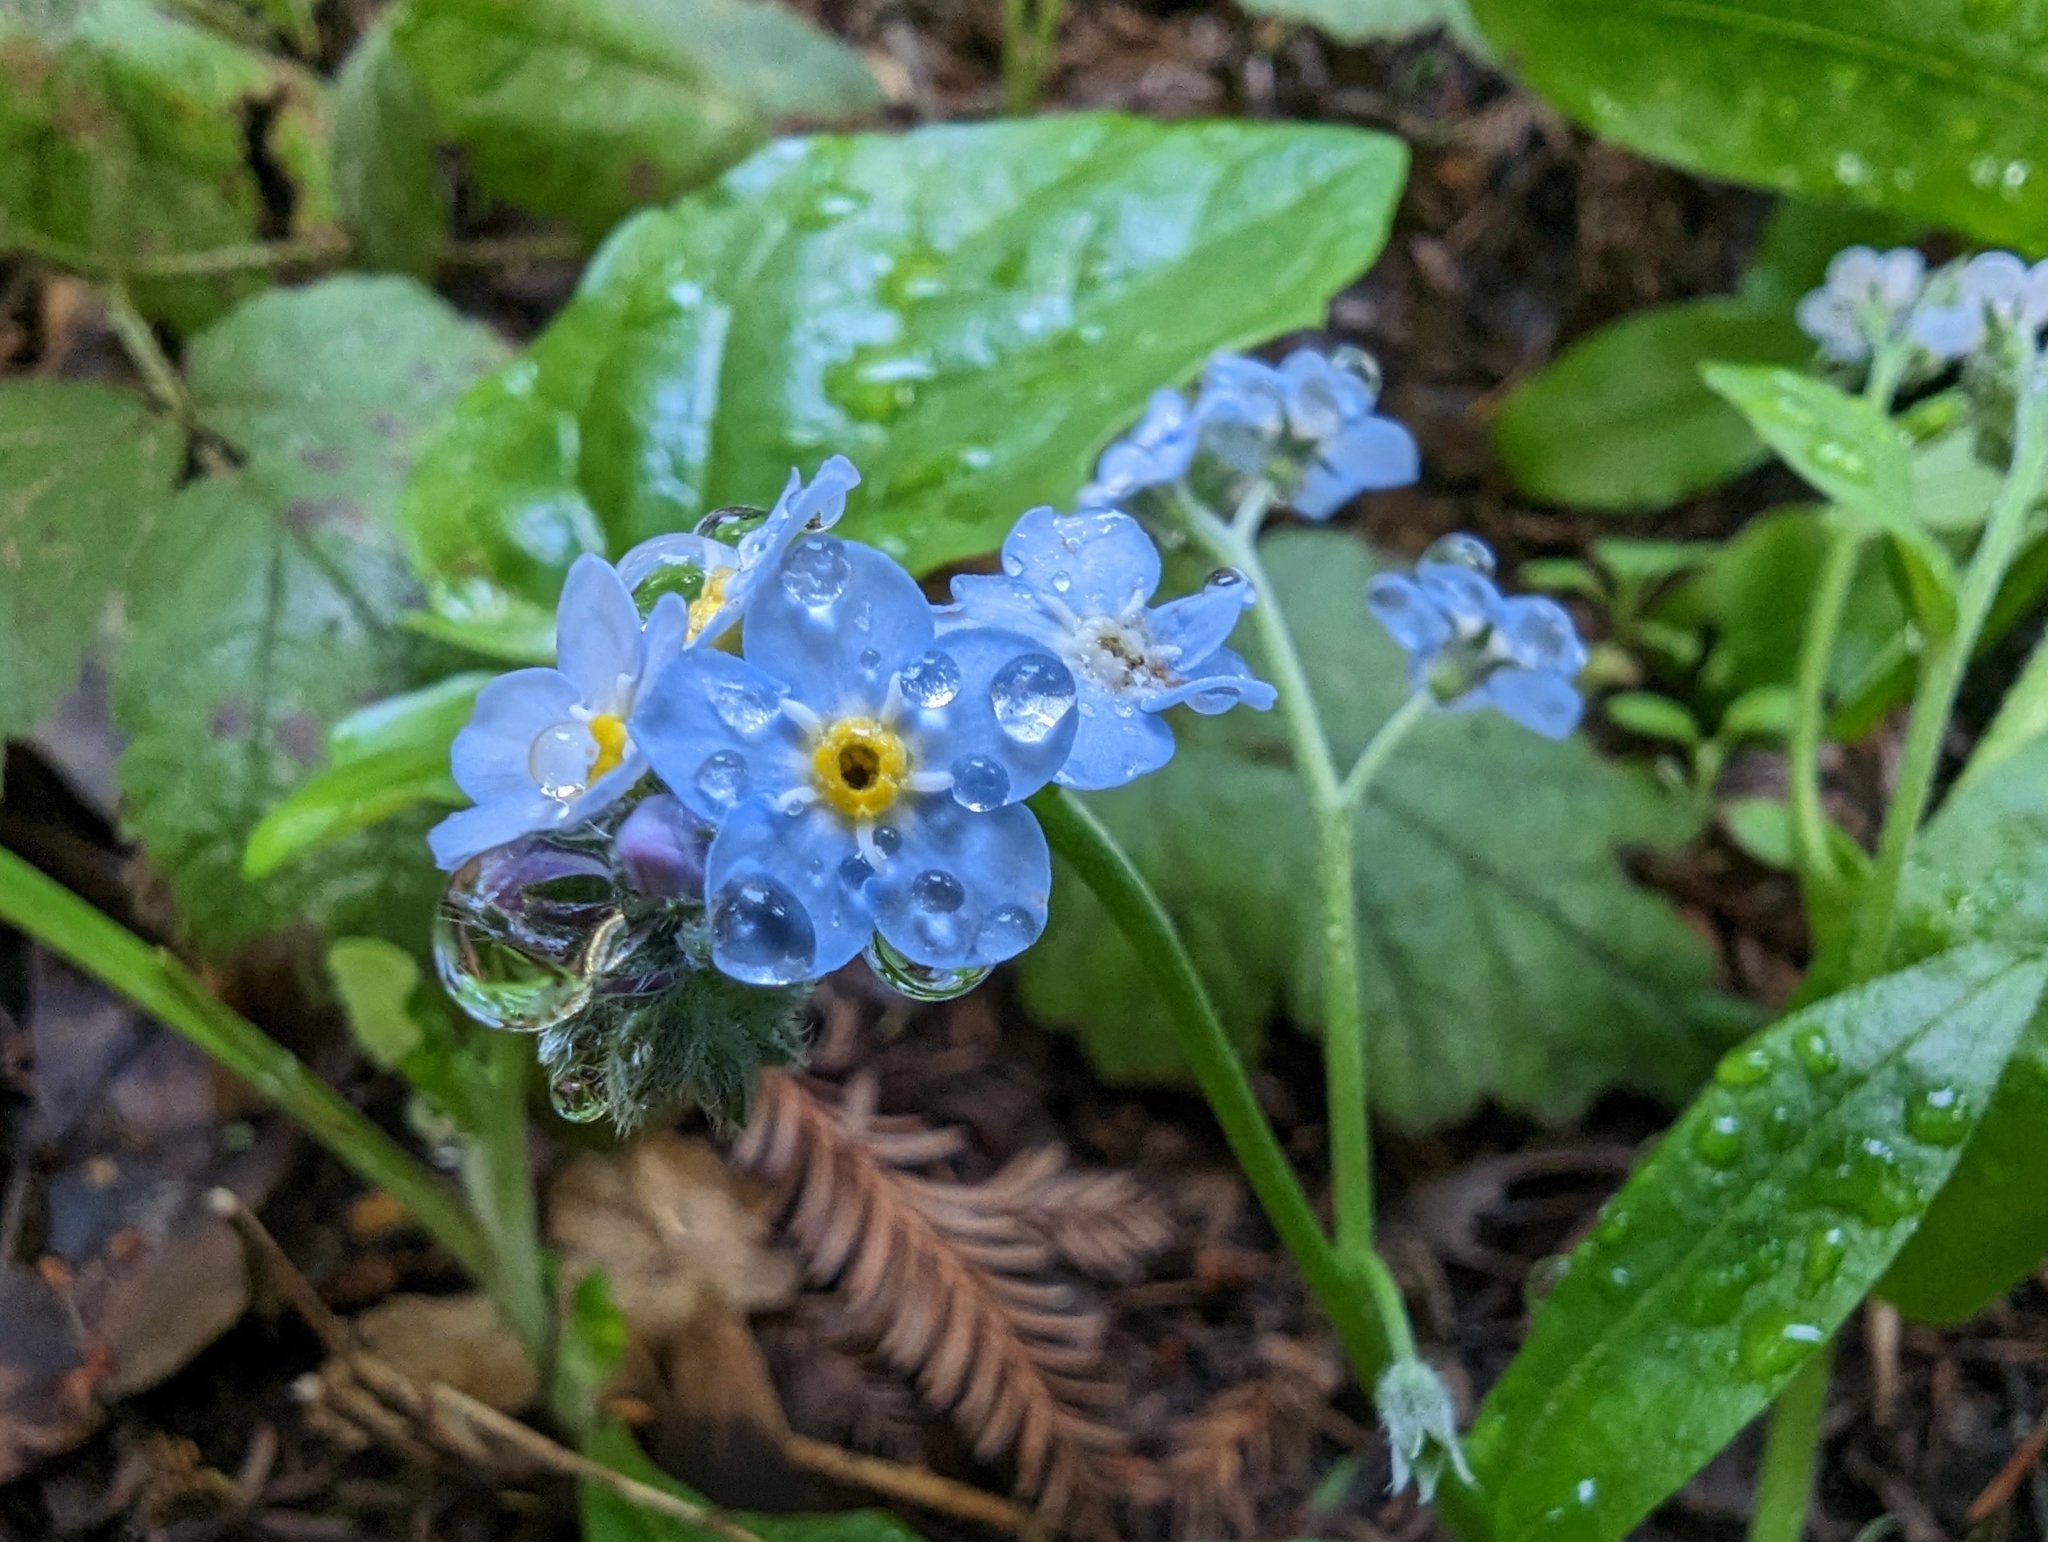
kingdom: Plantae
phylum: Tracheophyta
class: Magnoliopsida
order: Boraginales
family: Boraginaceae
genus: Myosotis
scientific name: Myosotis latifolia
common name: Broadleaf forget-me-not
